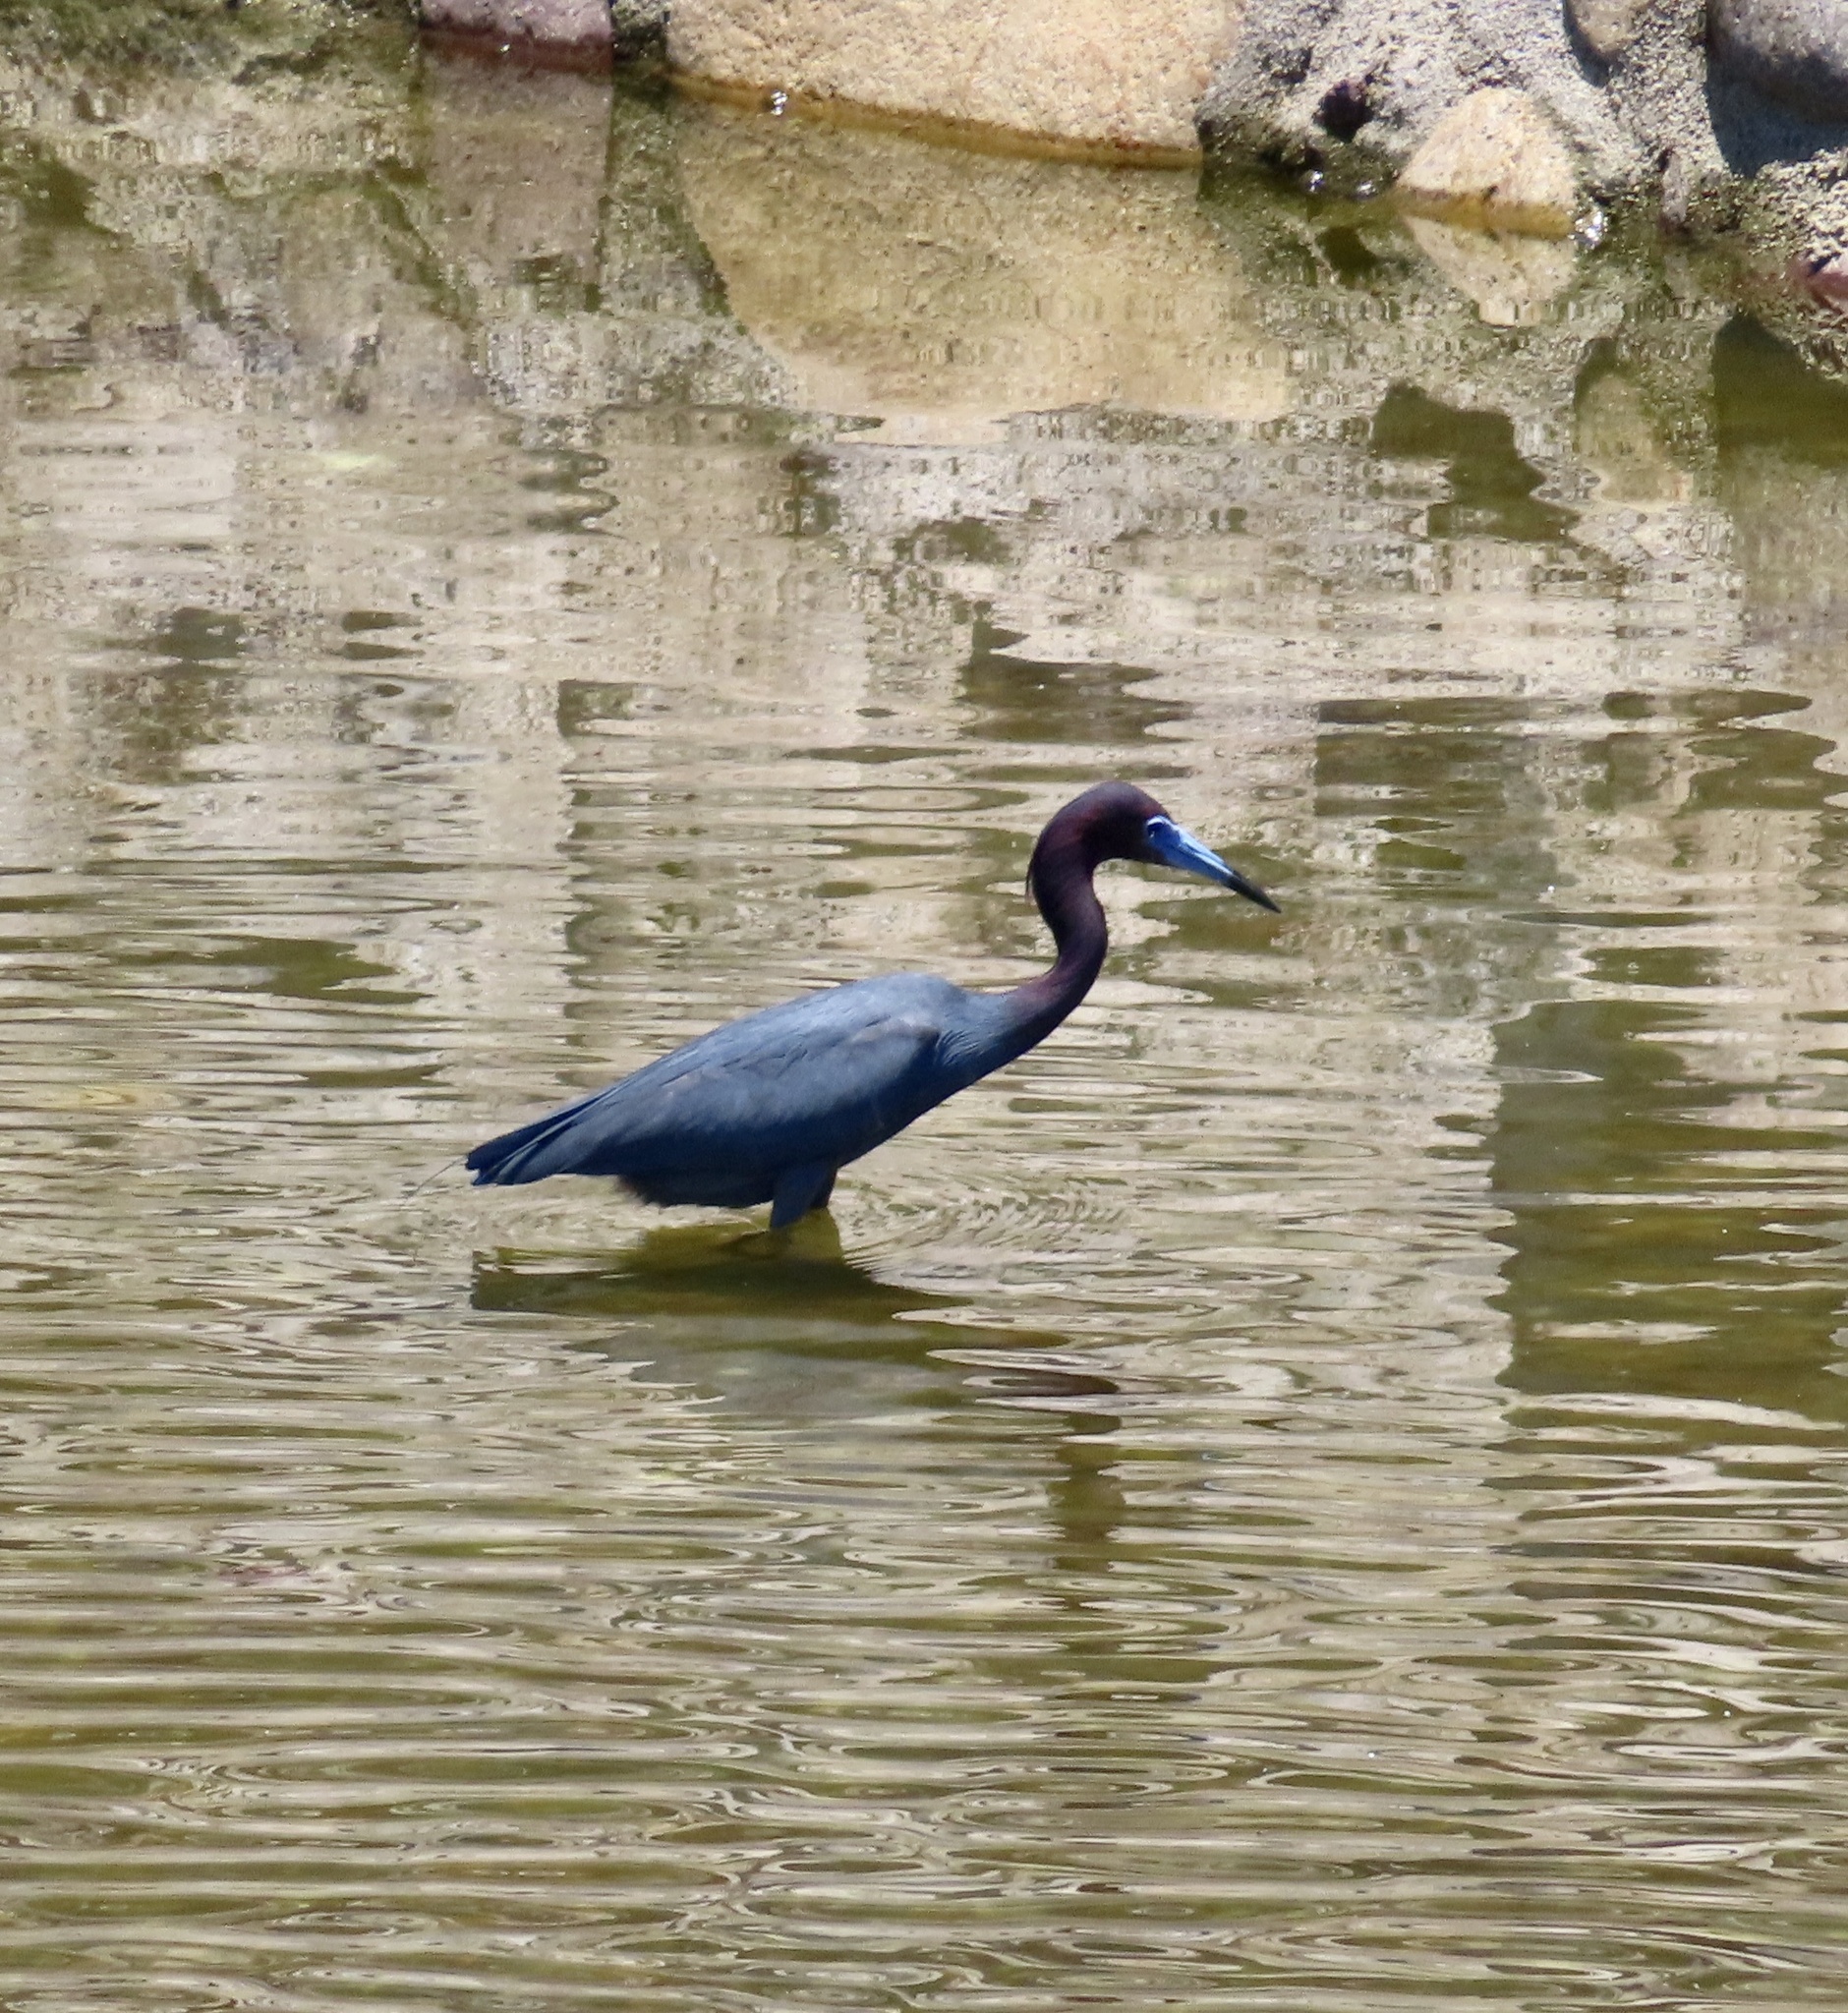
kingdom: Animalia
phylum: Chordata
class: Aves
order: Pelecaniformes
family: Ardeidae
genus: Egretta
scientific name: Egretta caerulea
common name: Little blue heron
